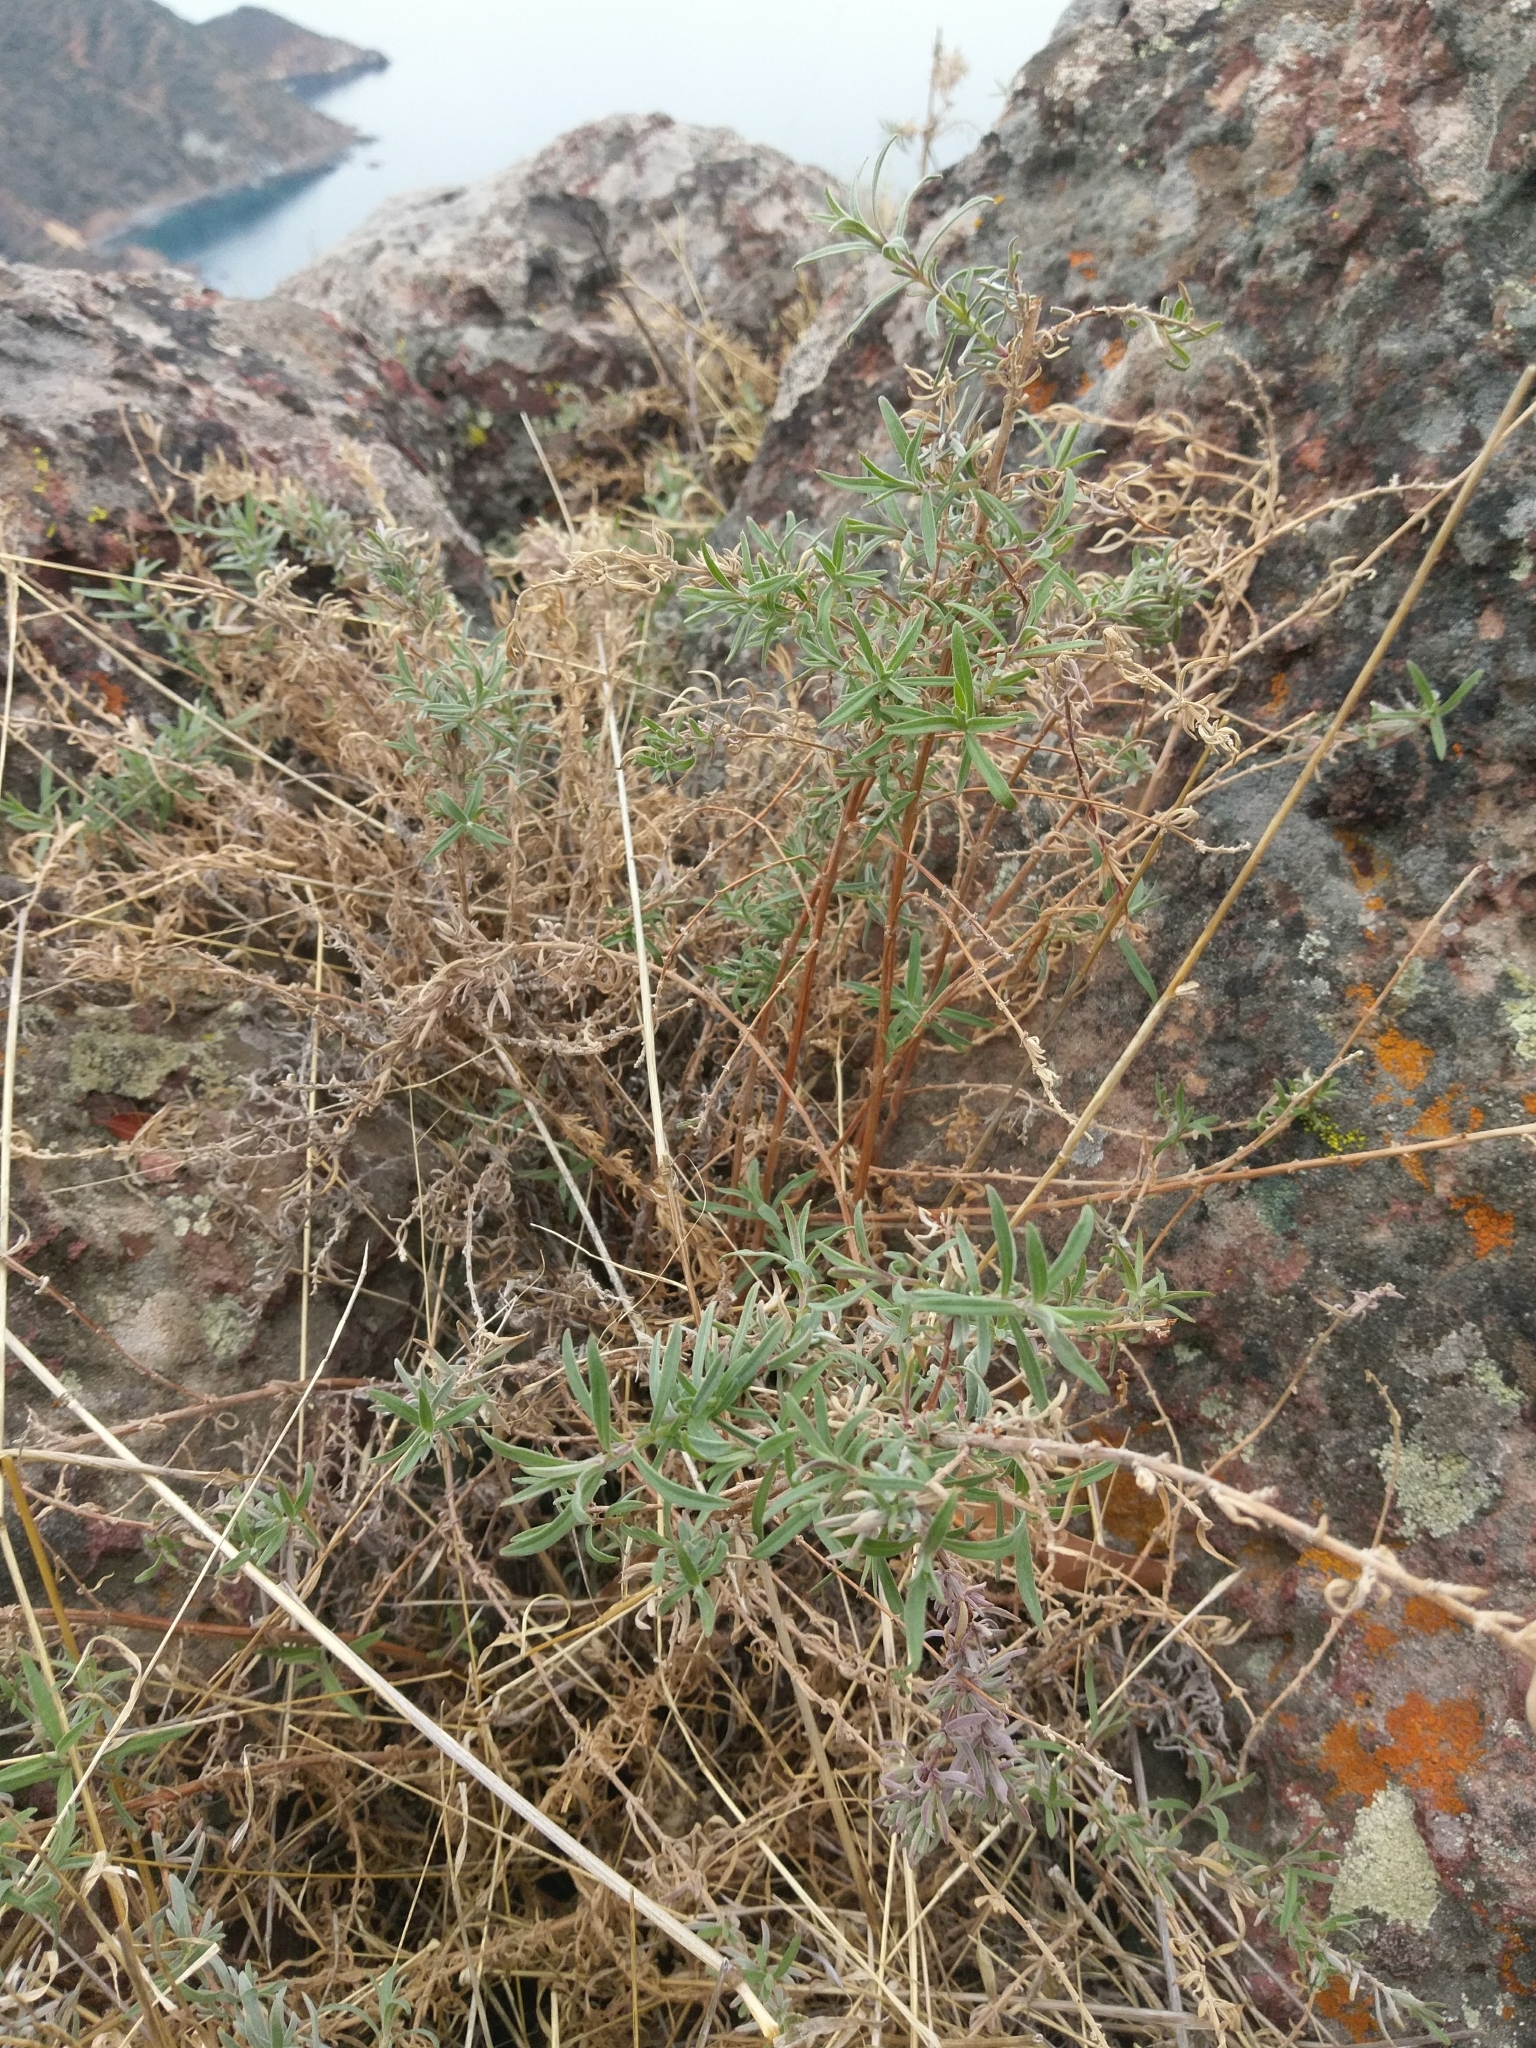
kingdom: Plantae
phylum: Tracheophyta
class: Magnoliopsida
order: Myrtales
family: Onagraceae
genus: Epilobium
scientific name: Epilobium canum
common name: California-fuchsia
